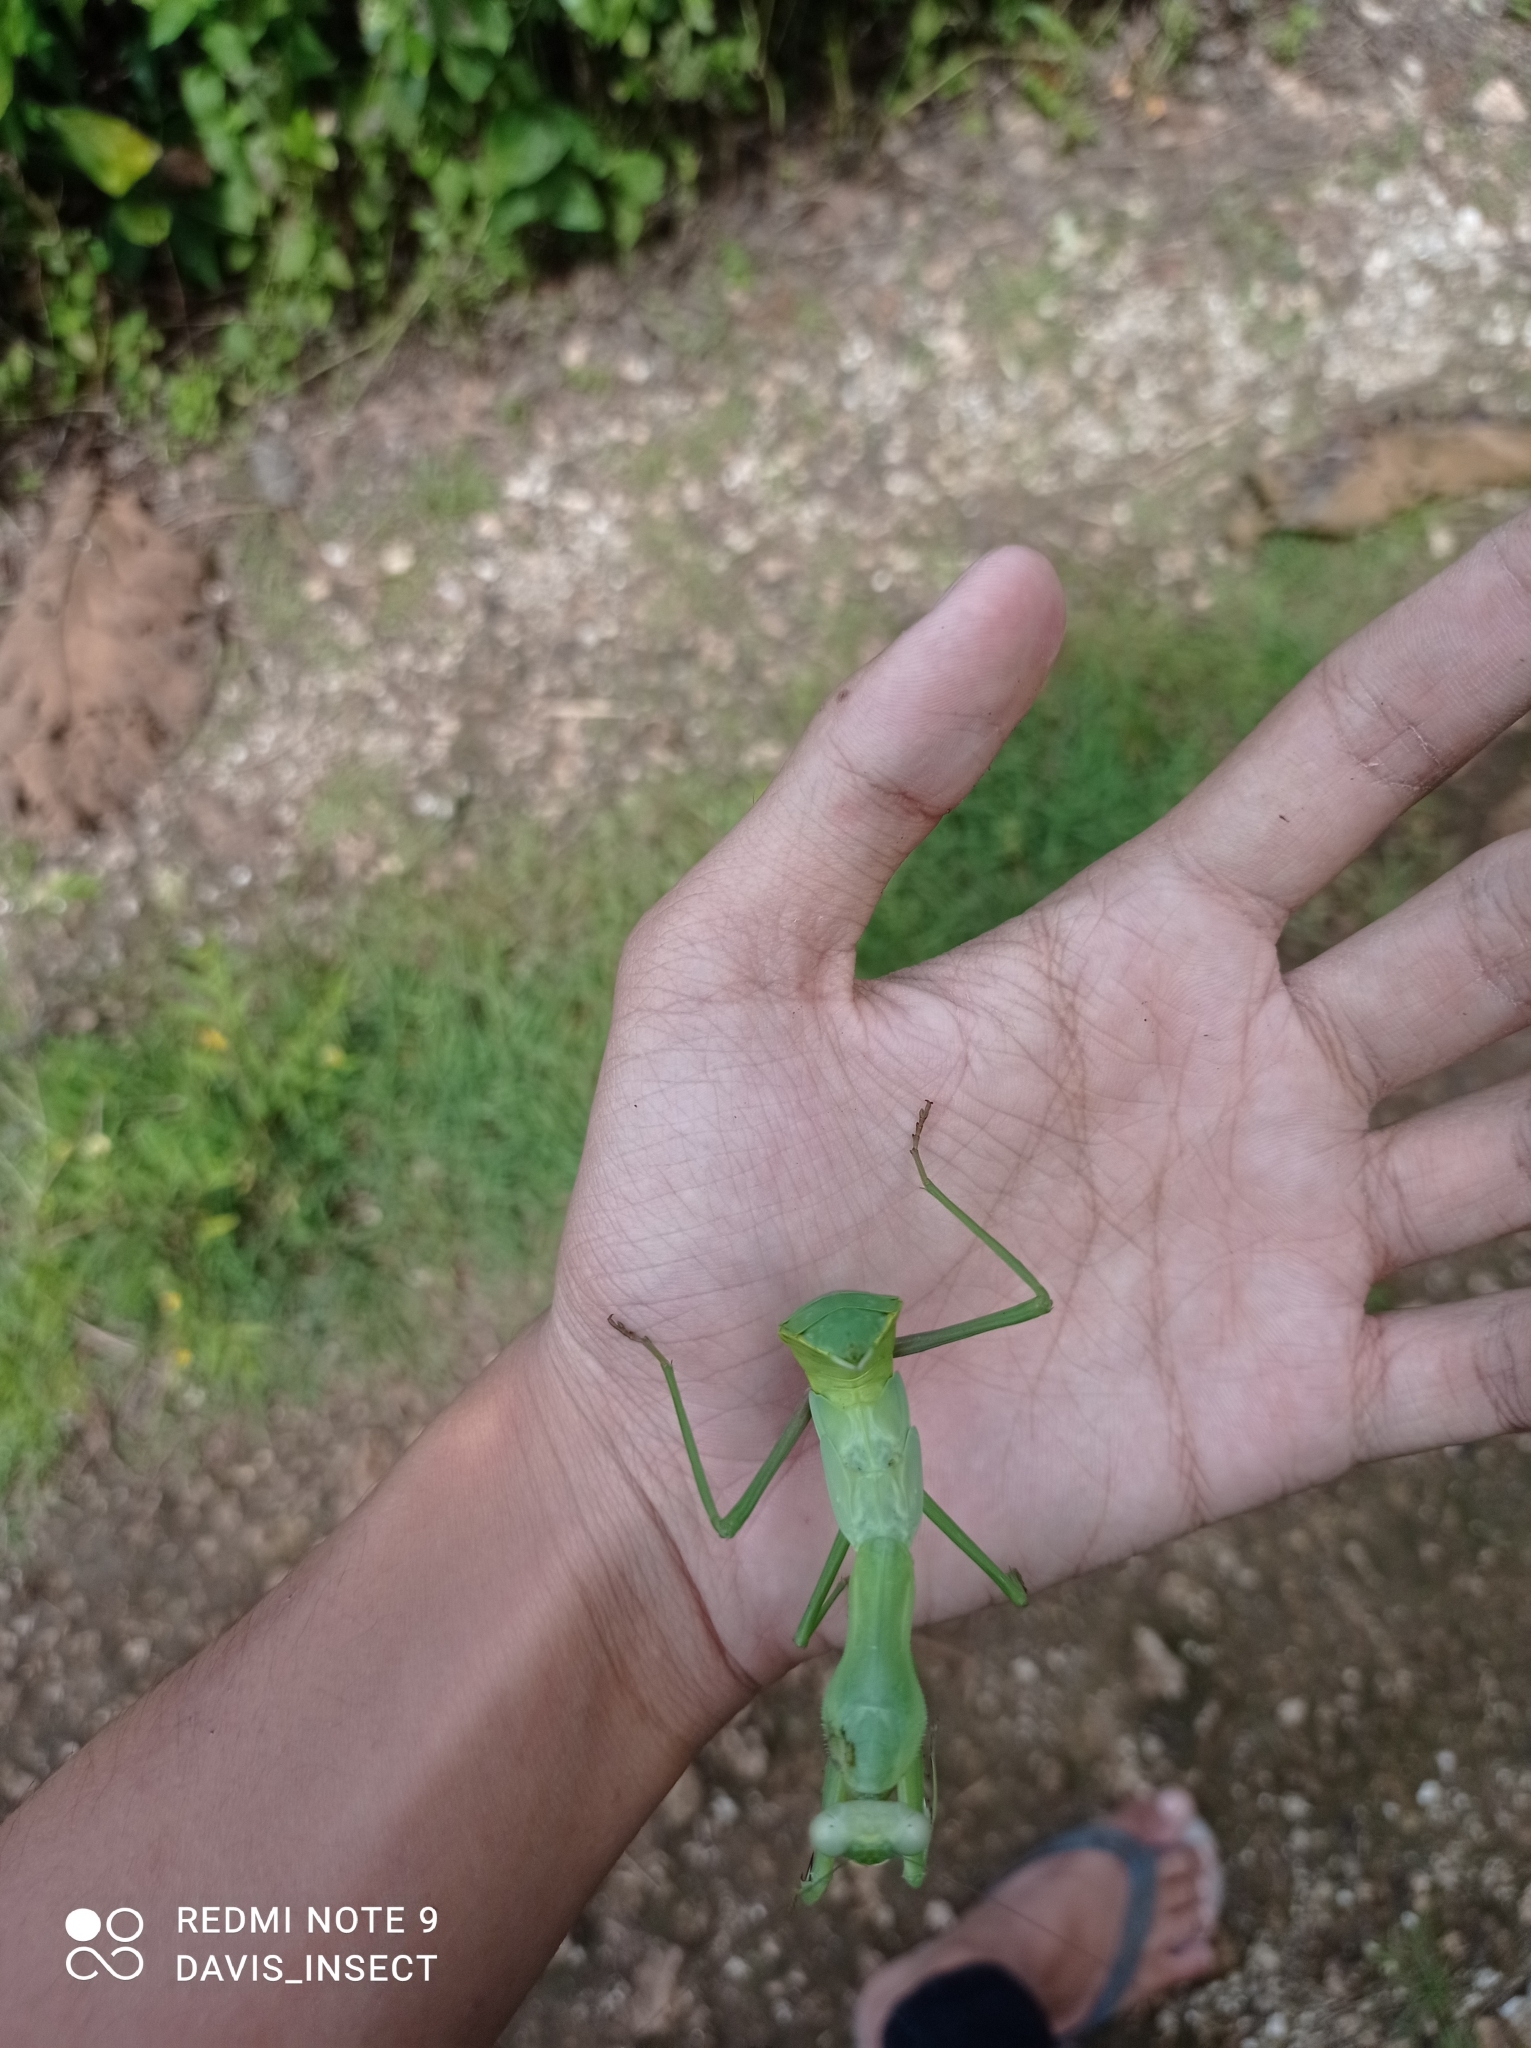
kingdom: Animalia
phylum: Arthropoda
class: Insecta
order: Mantodea
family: Mantidae
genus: Hierodula
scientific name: Hierodula timorensis
